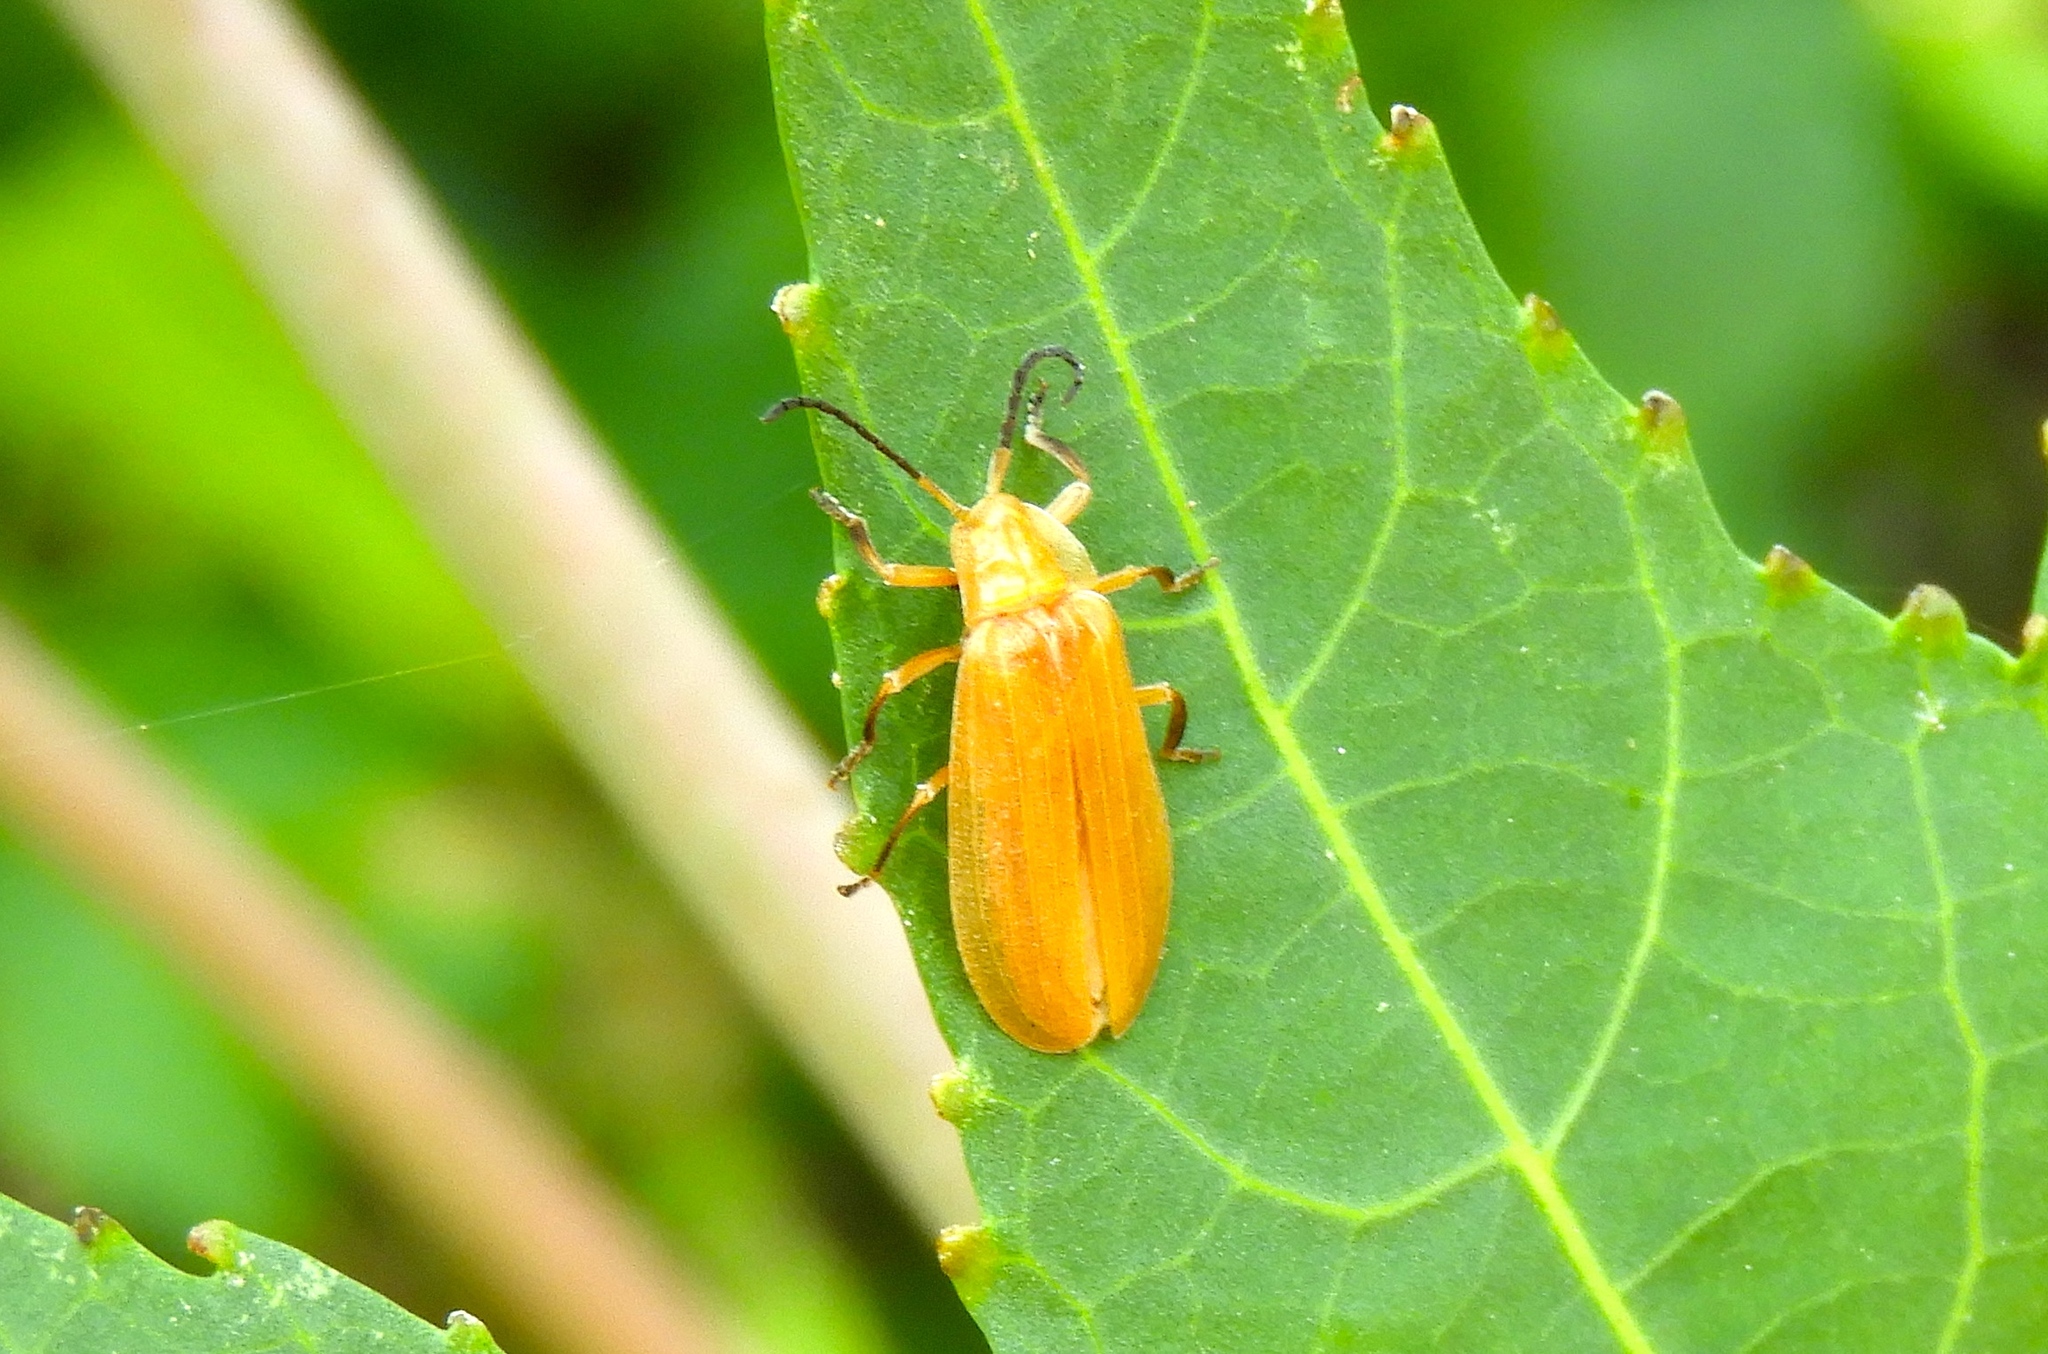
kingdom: Animalia
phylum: Arthropoda
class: Insecta
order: Coleoptera
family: Lycidae
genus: Lycus
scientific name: Lycus
